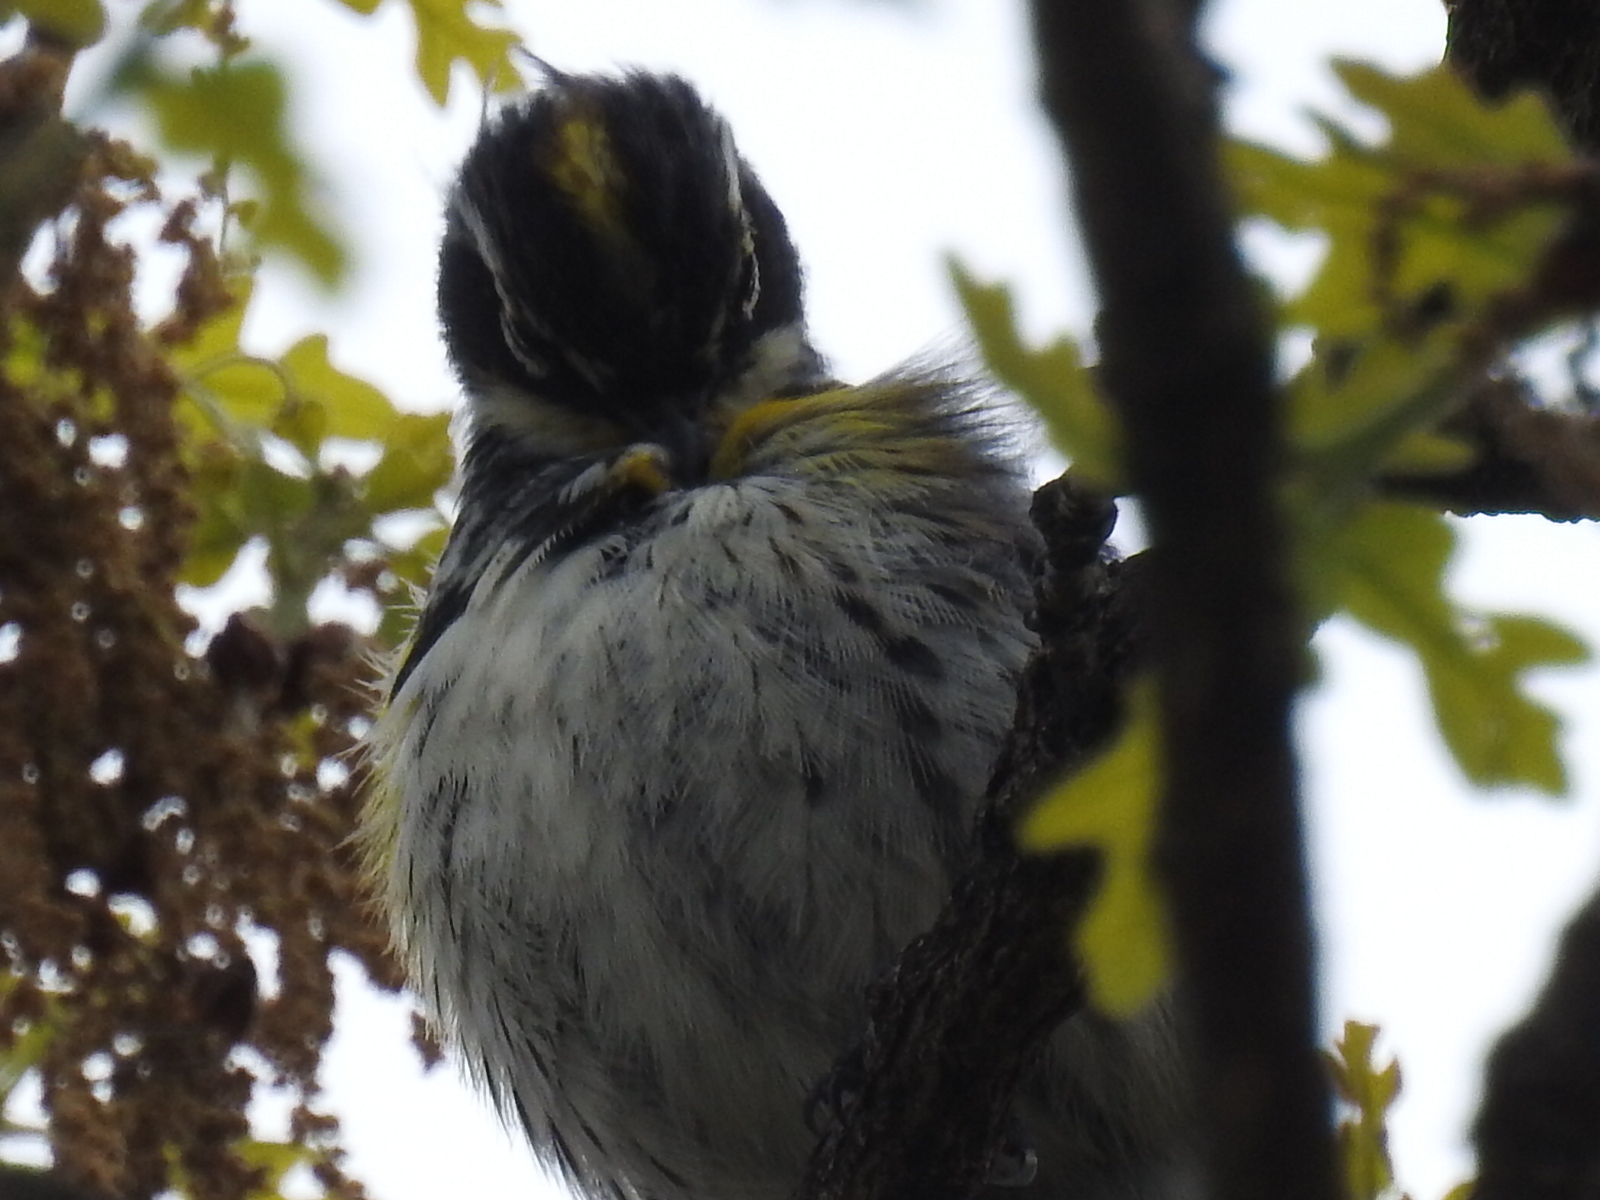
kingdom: Animalia
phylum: Chordata
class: Aves
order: Passeriformes
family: Parulidae
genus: Setophaga
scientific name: Setophaga coronata
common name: Myrtle warbler
